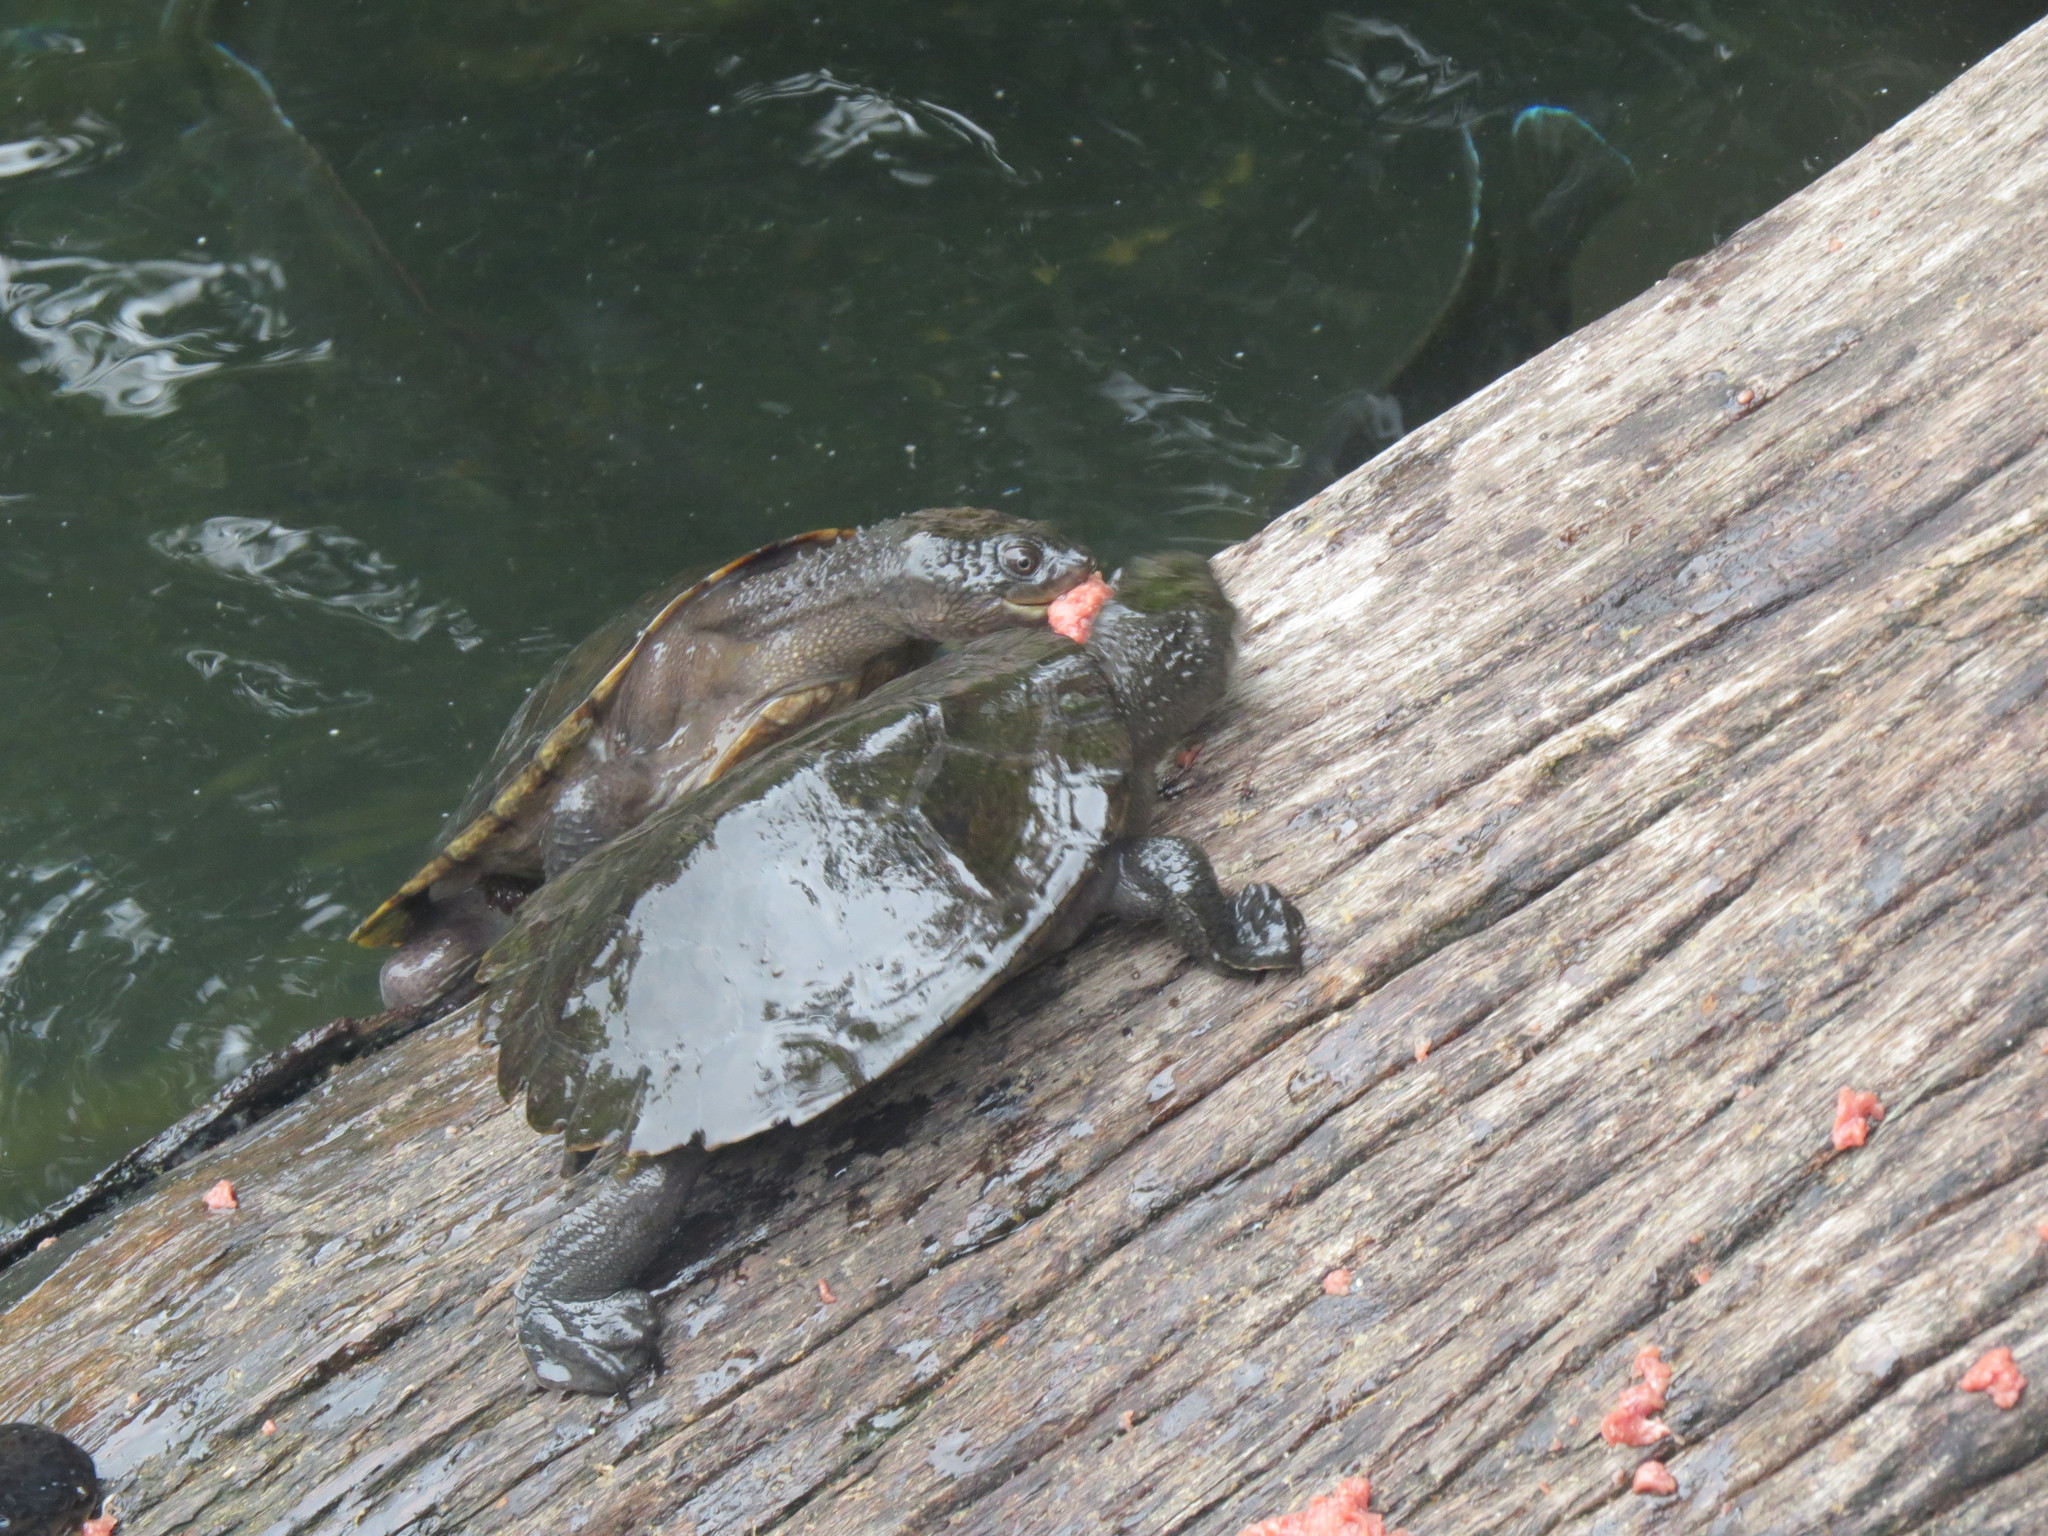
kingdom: Animalia
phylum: Chordata
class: Testudines
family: Chelidae
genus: Myuchelys
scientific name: Myuchelys latisternum
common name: Serrated snapping turtle
